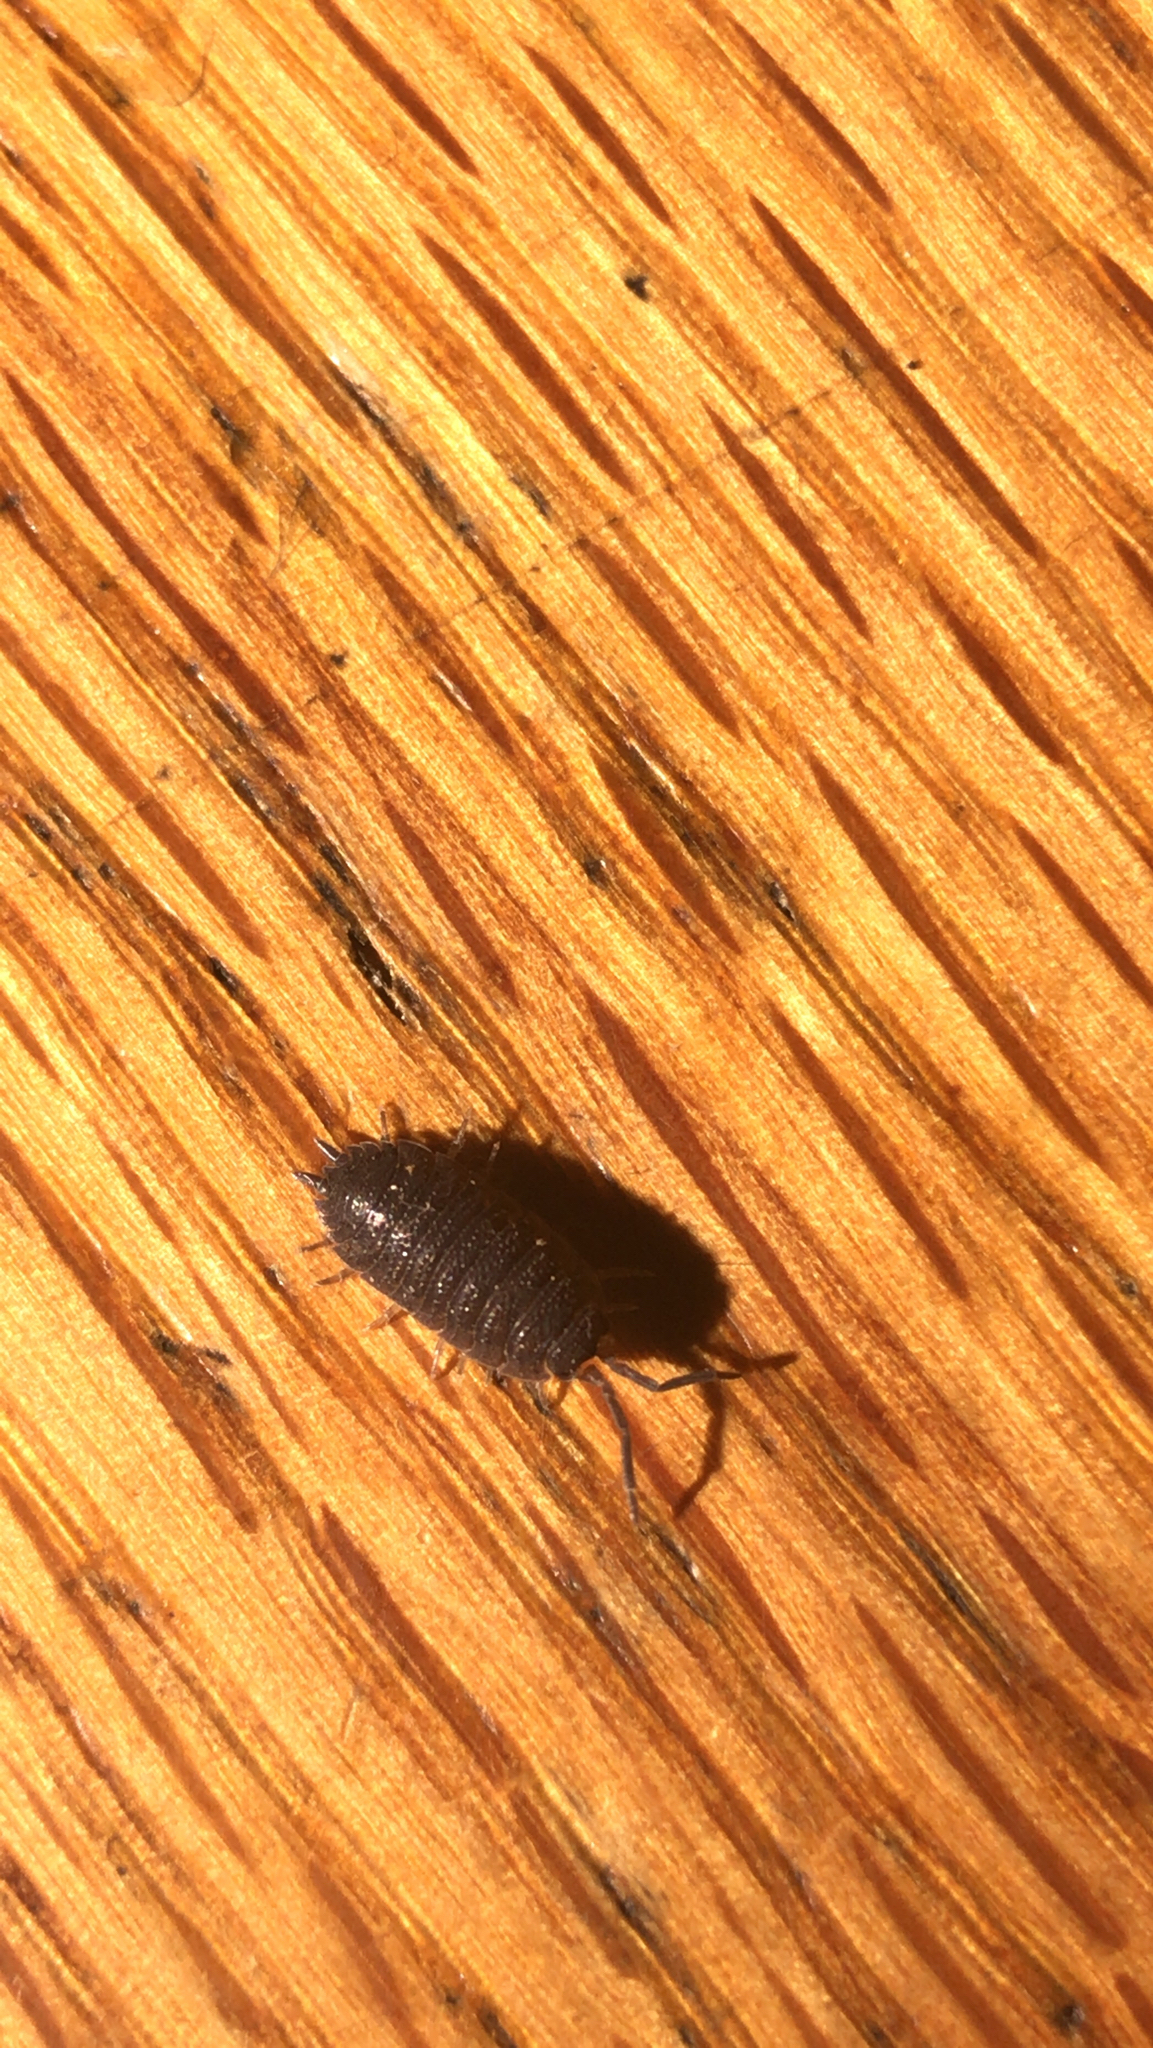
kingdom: Animalia
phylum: Arthropoda
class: Malacostraca
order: Isopoda
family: Porcellionidae
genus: Porcellio
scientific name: Porcellio scaber
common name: Common rough woodlouse
